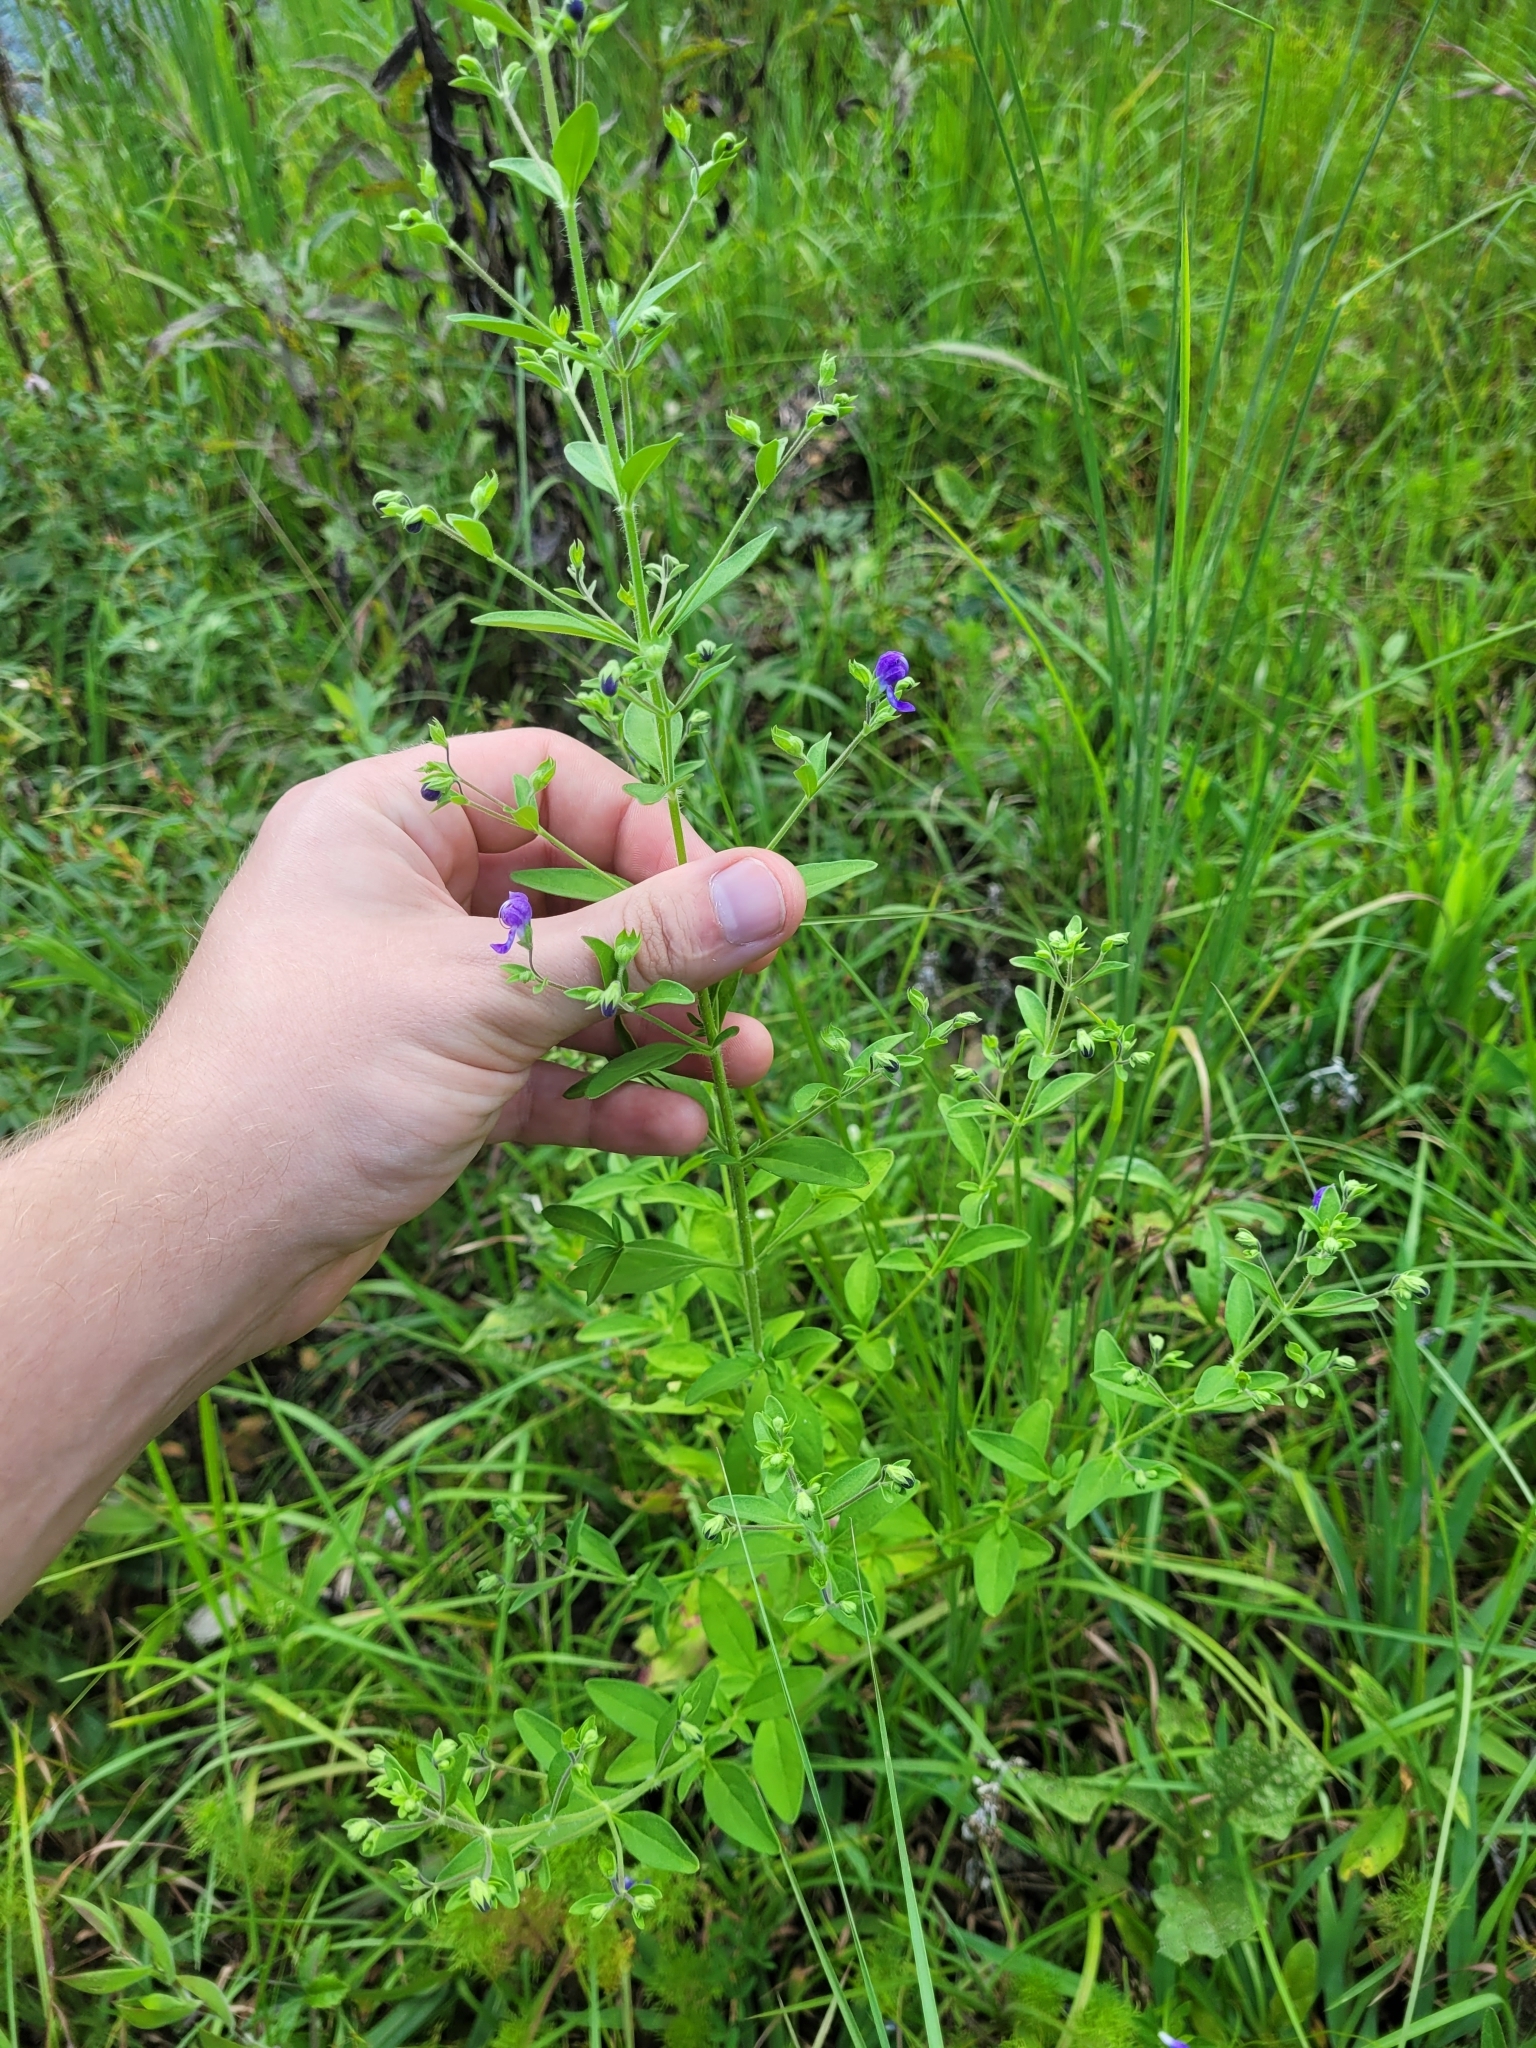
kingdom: Plantae
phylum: Tracheophyta
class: Magnoliopsida
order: Lamiales
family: Lamiaceae
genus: Trichostema
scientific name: Trichostema dichotomum
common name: Bastard pennyroyal
